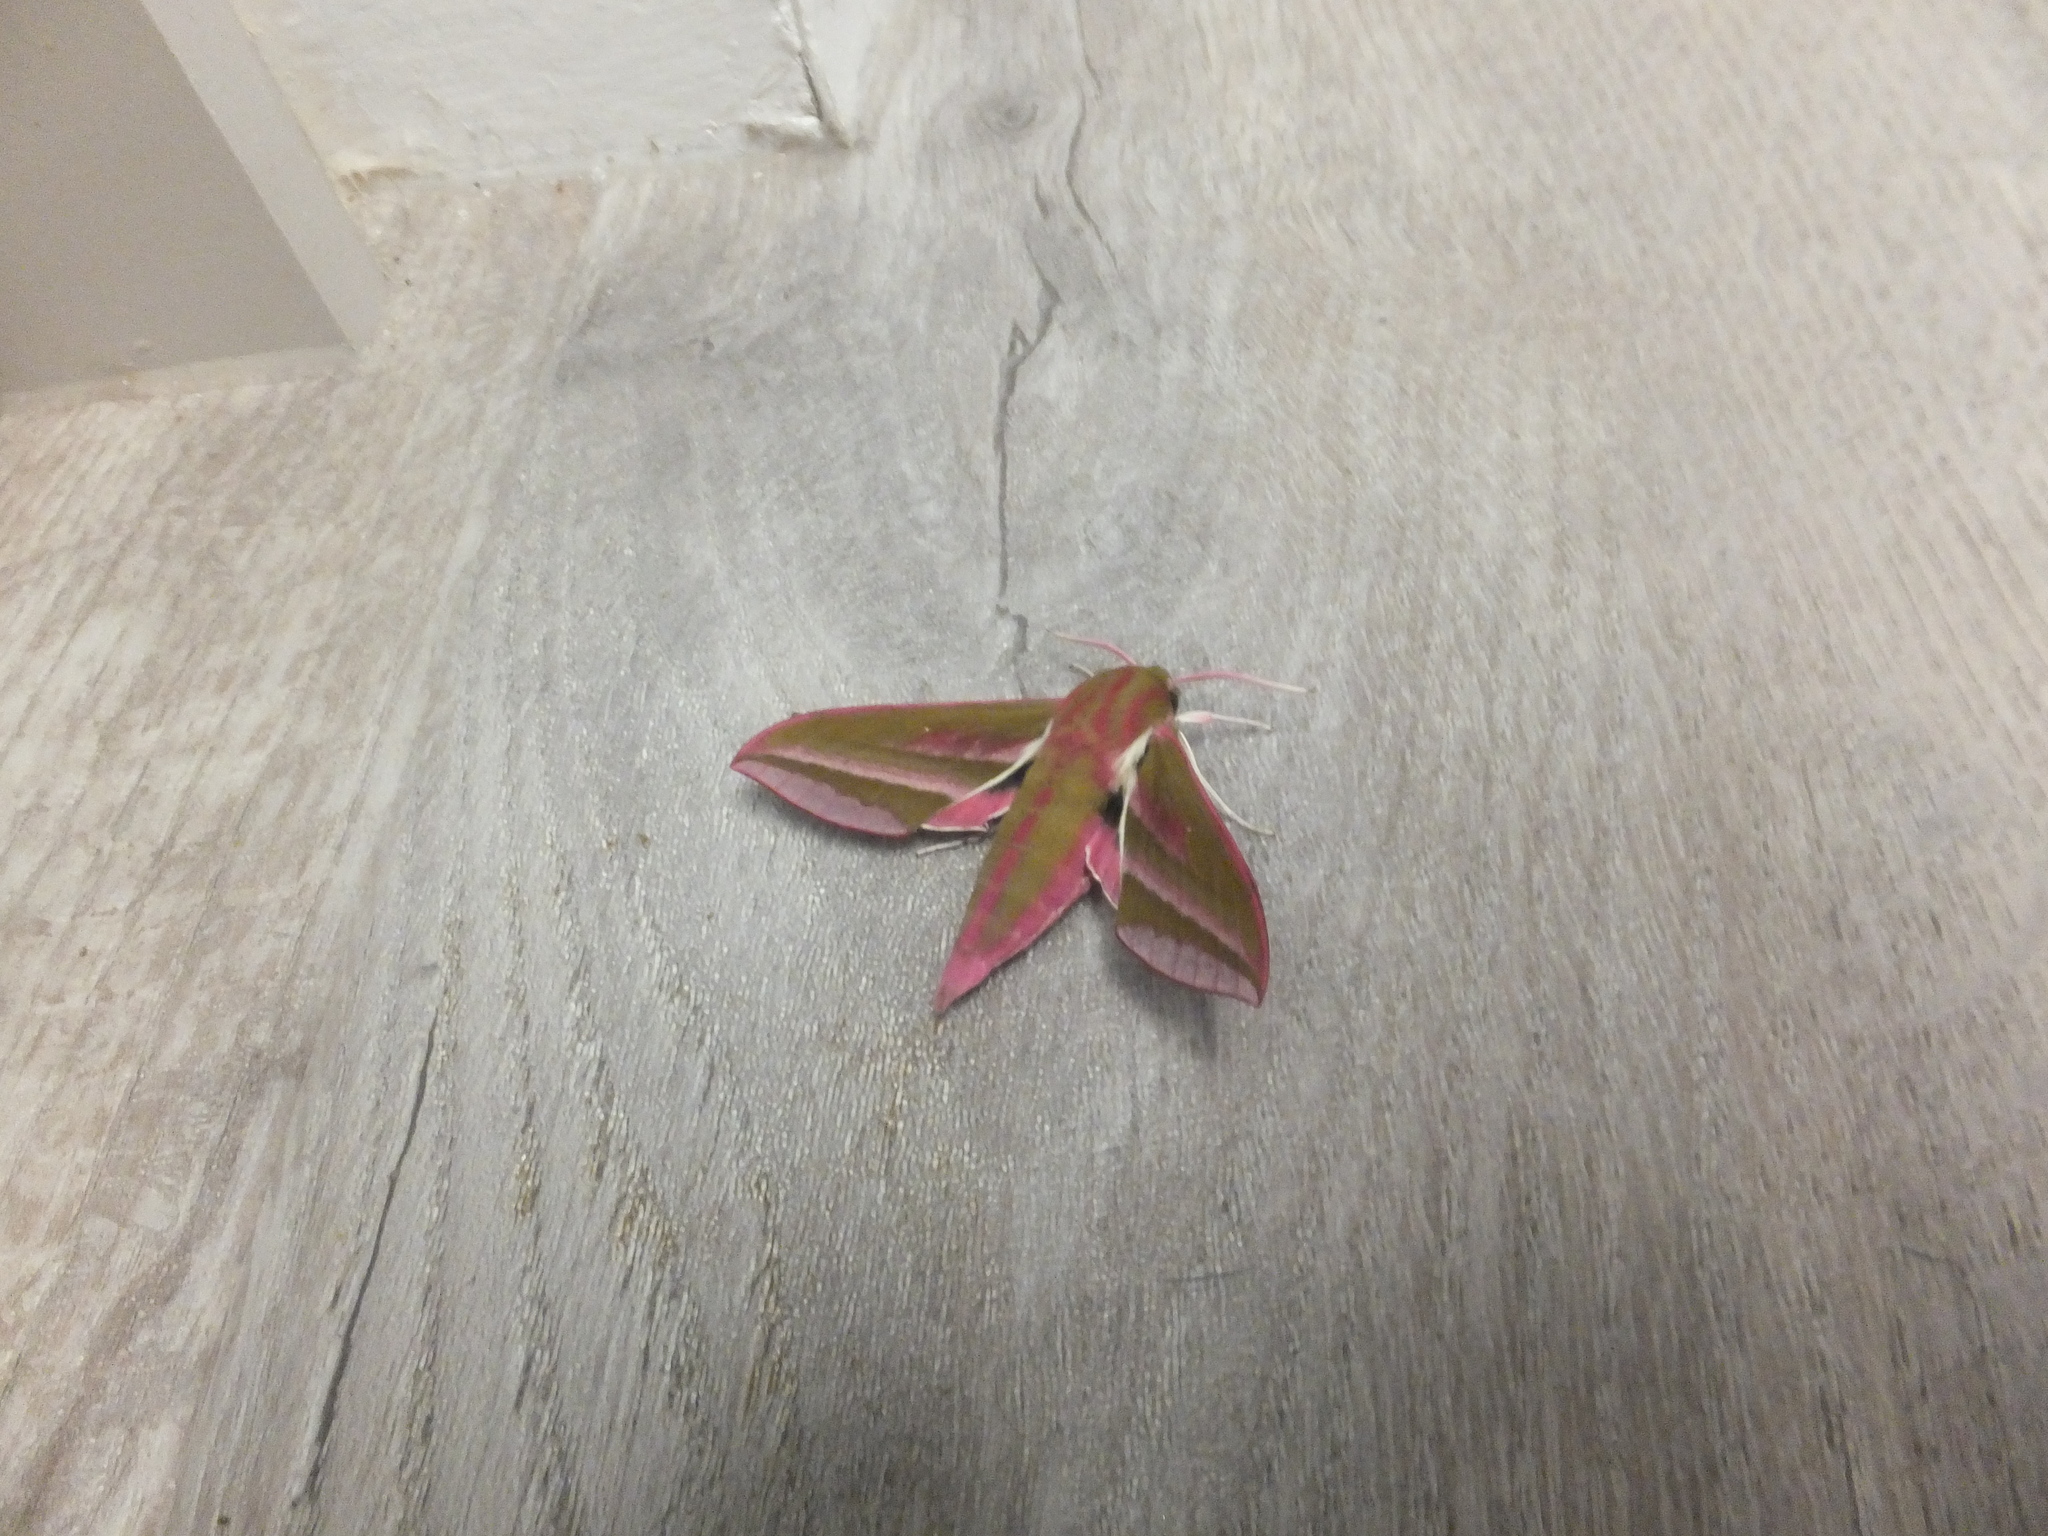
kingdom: Animalia
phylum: Arthropoda
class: Insecta
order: Lepidoptera
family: Sphingidae
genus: Deilephila
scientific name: Deilephila elpenor
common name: Elephant hawk-moth
